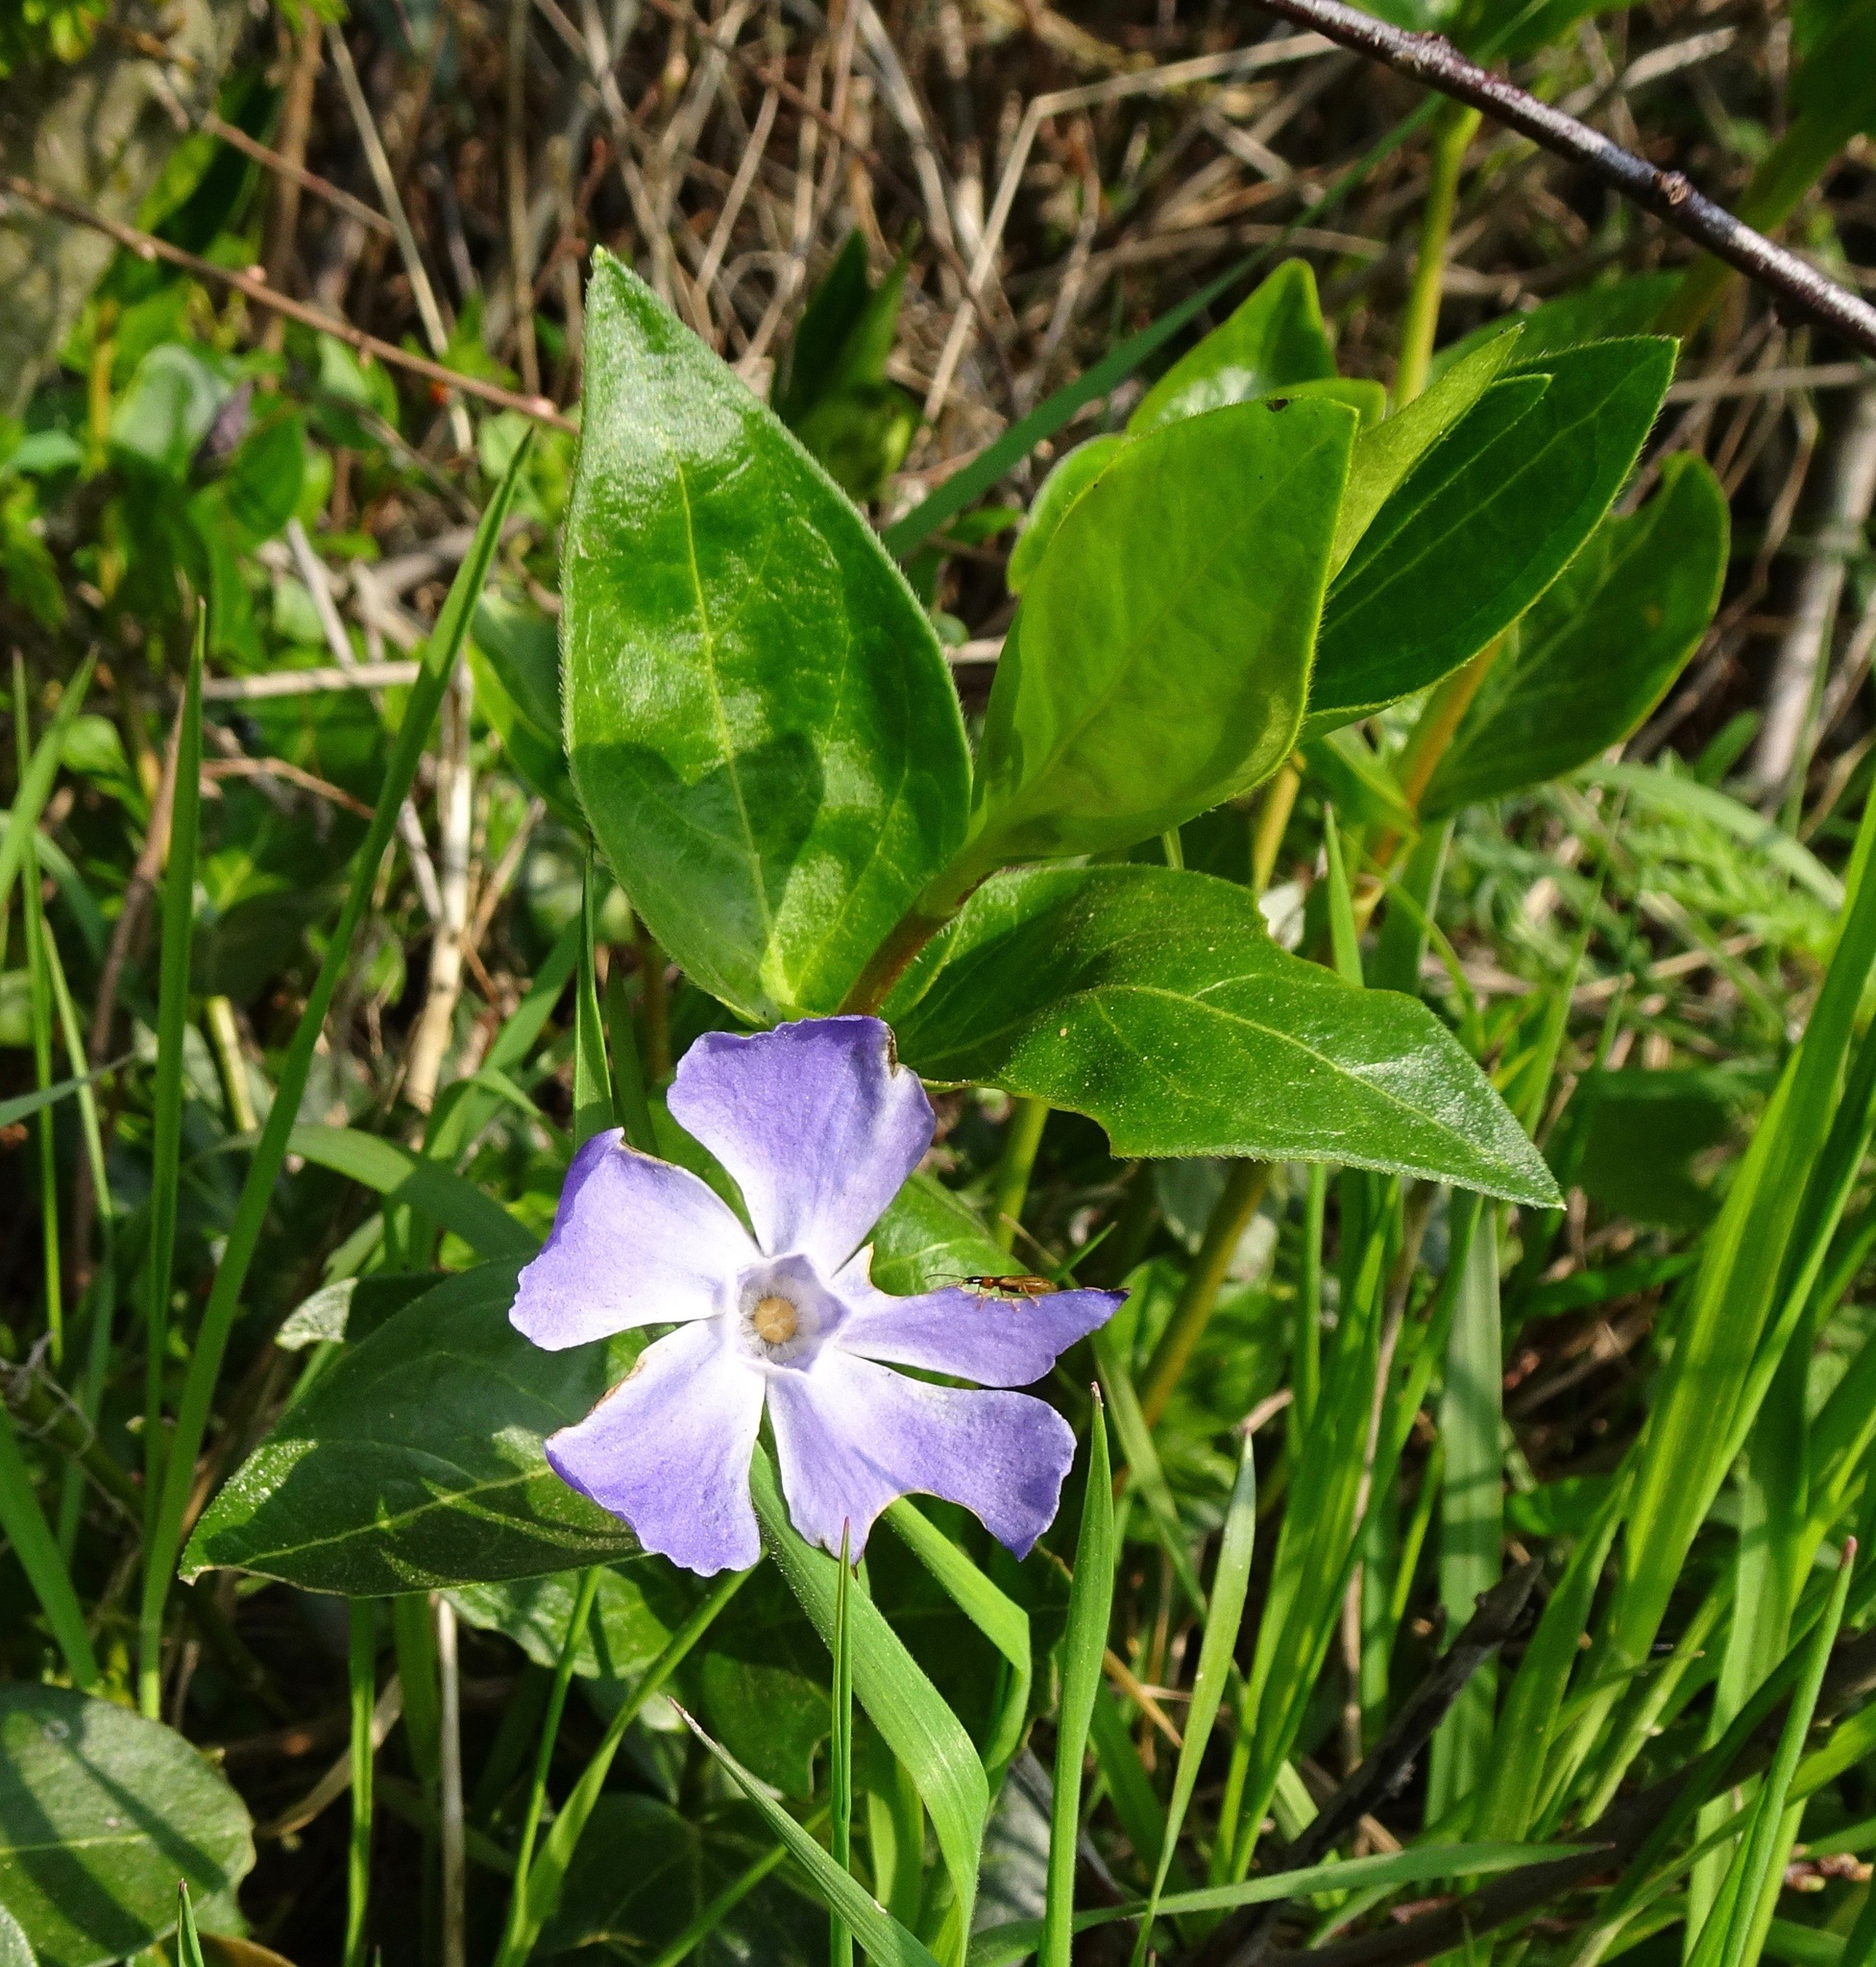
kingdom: Plantae
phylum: Tracheophyta
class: Magnoliopsida
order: Gentianales
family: Apocynaceae
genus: Vinca
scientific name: Vinca major
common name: Greater periwinkle
